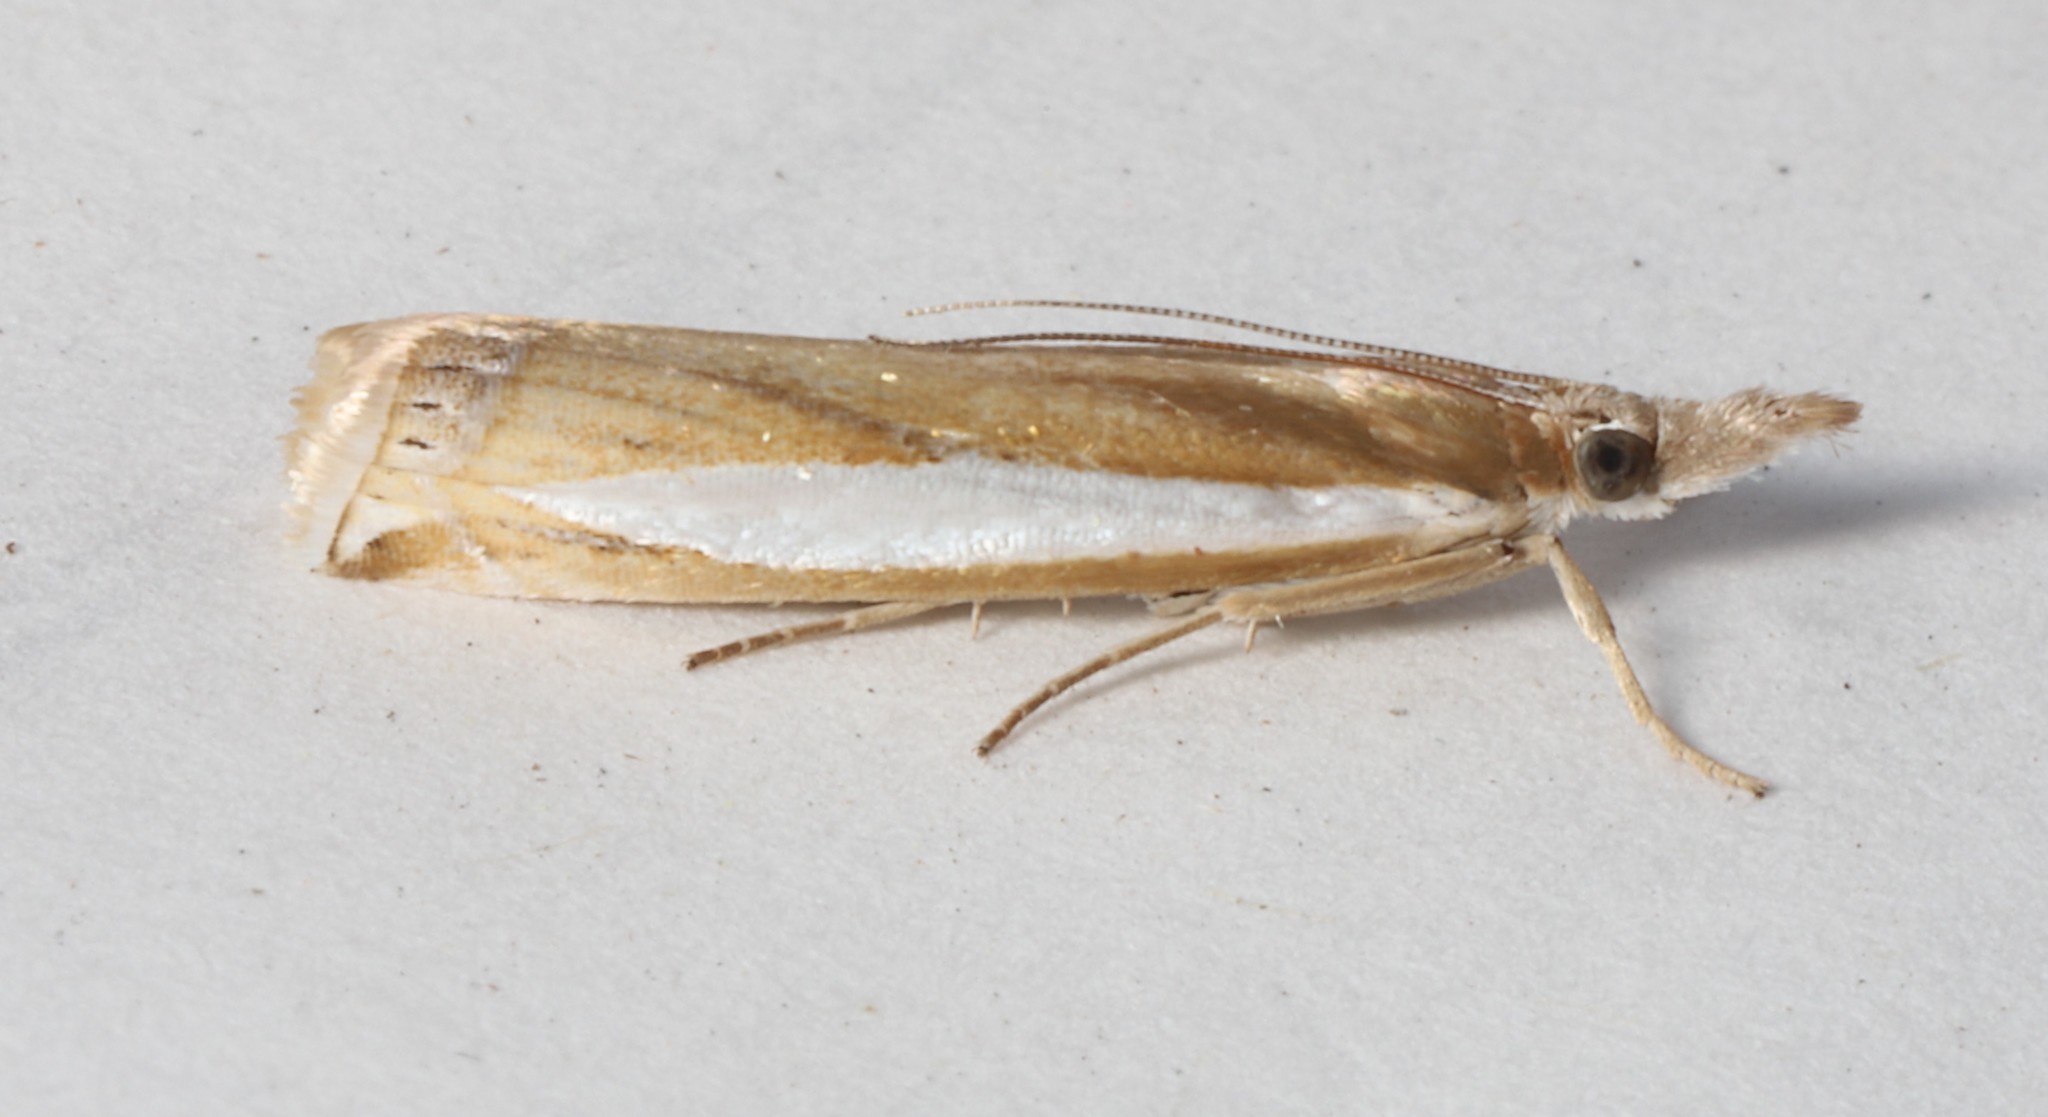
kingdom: Animalia
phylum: Arthropoda
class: Insecta
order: Lepidoptera
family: Crambidae
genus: Crambus
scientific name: Crambus praefectellus
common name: Common grass-veneer
